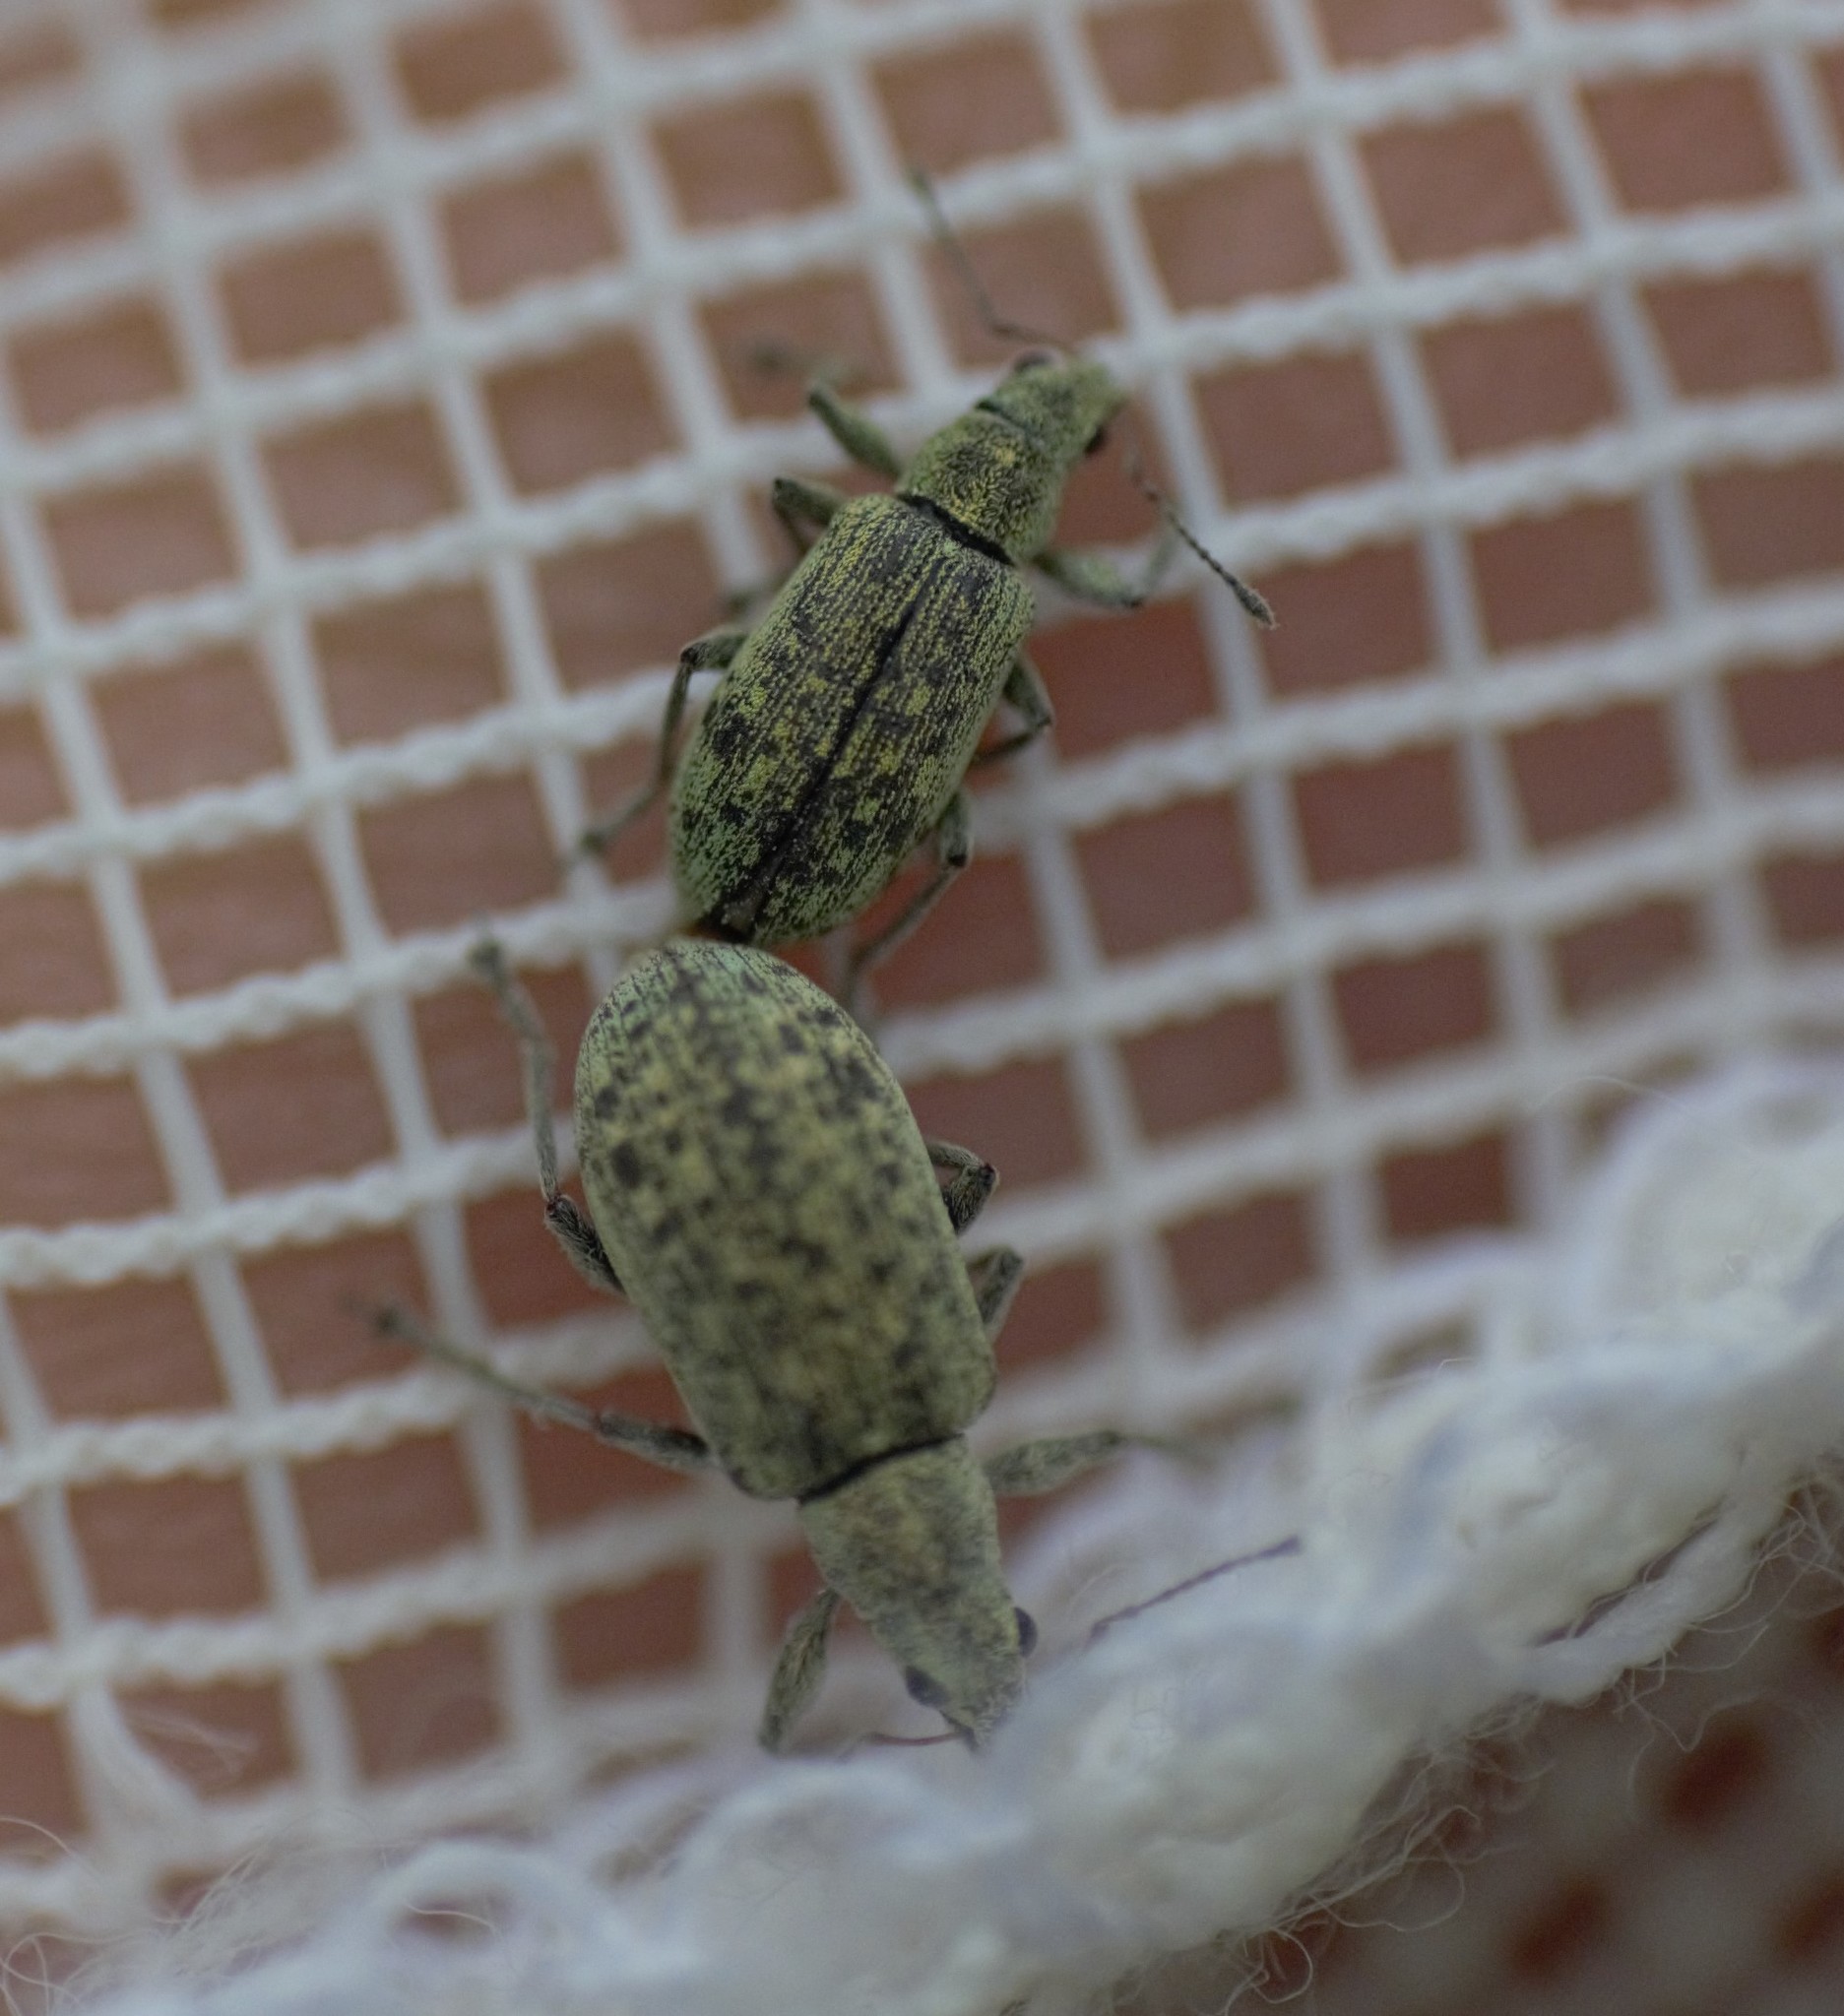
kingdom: Animalia
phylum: Arthropoda
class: Insecta
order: Coleoptera
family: Curculionidae
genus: Polydrusus
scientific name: Polydrusus cervinus
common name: Weevil
